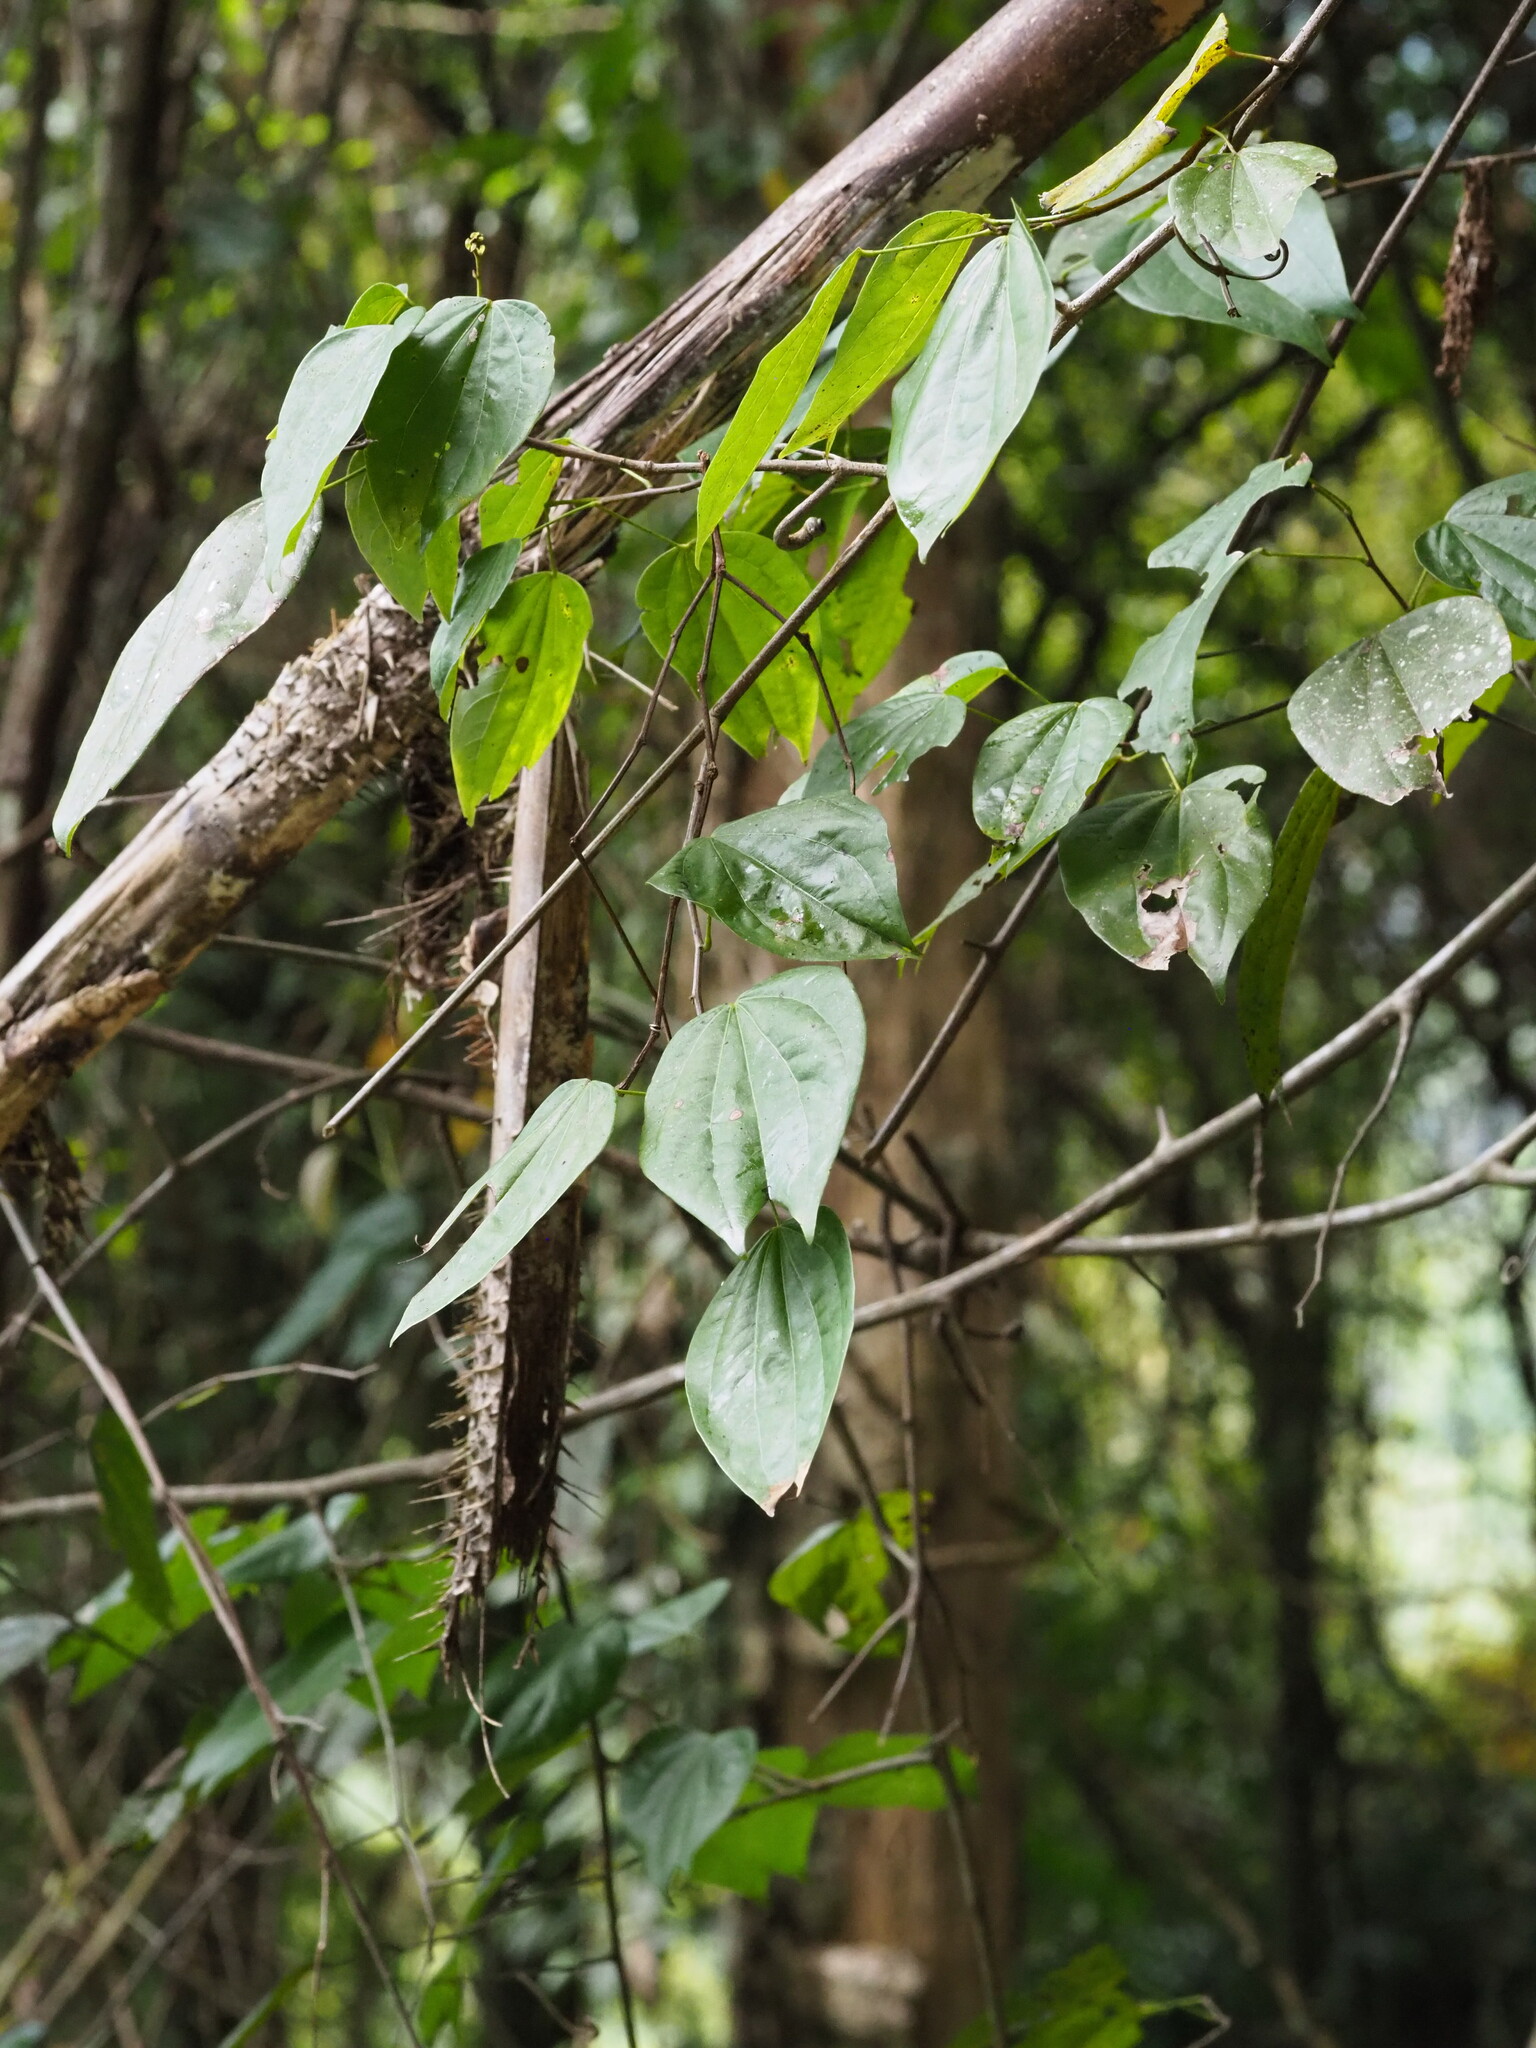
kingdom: Plantae
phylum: Tracheophyta
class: Magnoliopsida
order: Fabales
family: Fabaceae
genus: Phanera
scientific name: Phanera championii
